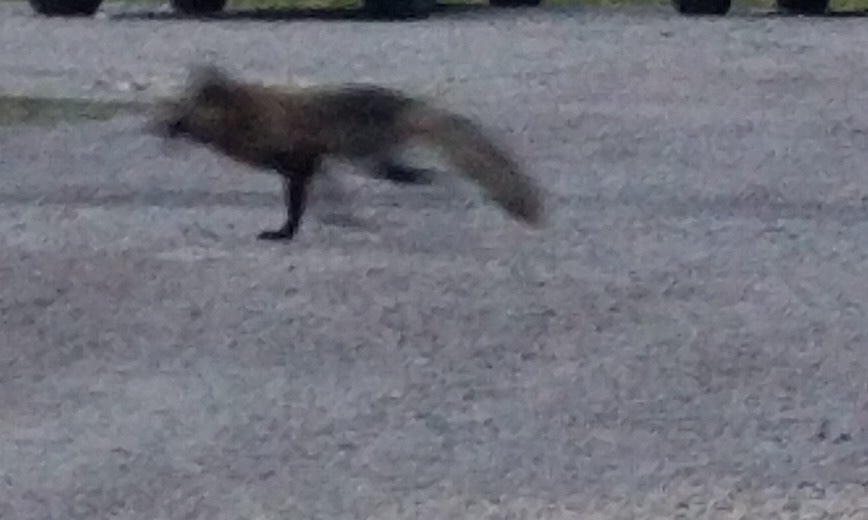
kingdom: Animalia
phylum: Chordata
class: Mammalia
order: Carnivora
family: Canidae
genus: Vulpes
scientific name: Vulpes vulpes
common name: Red fox
